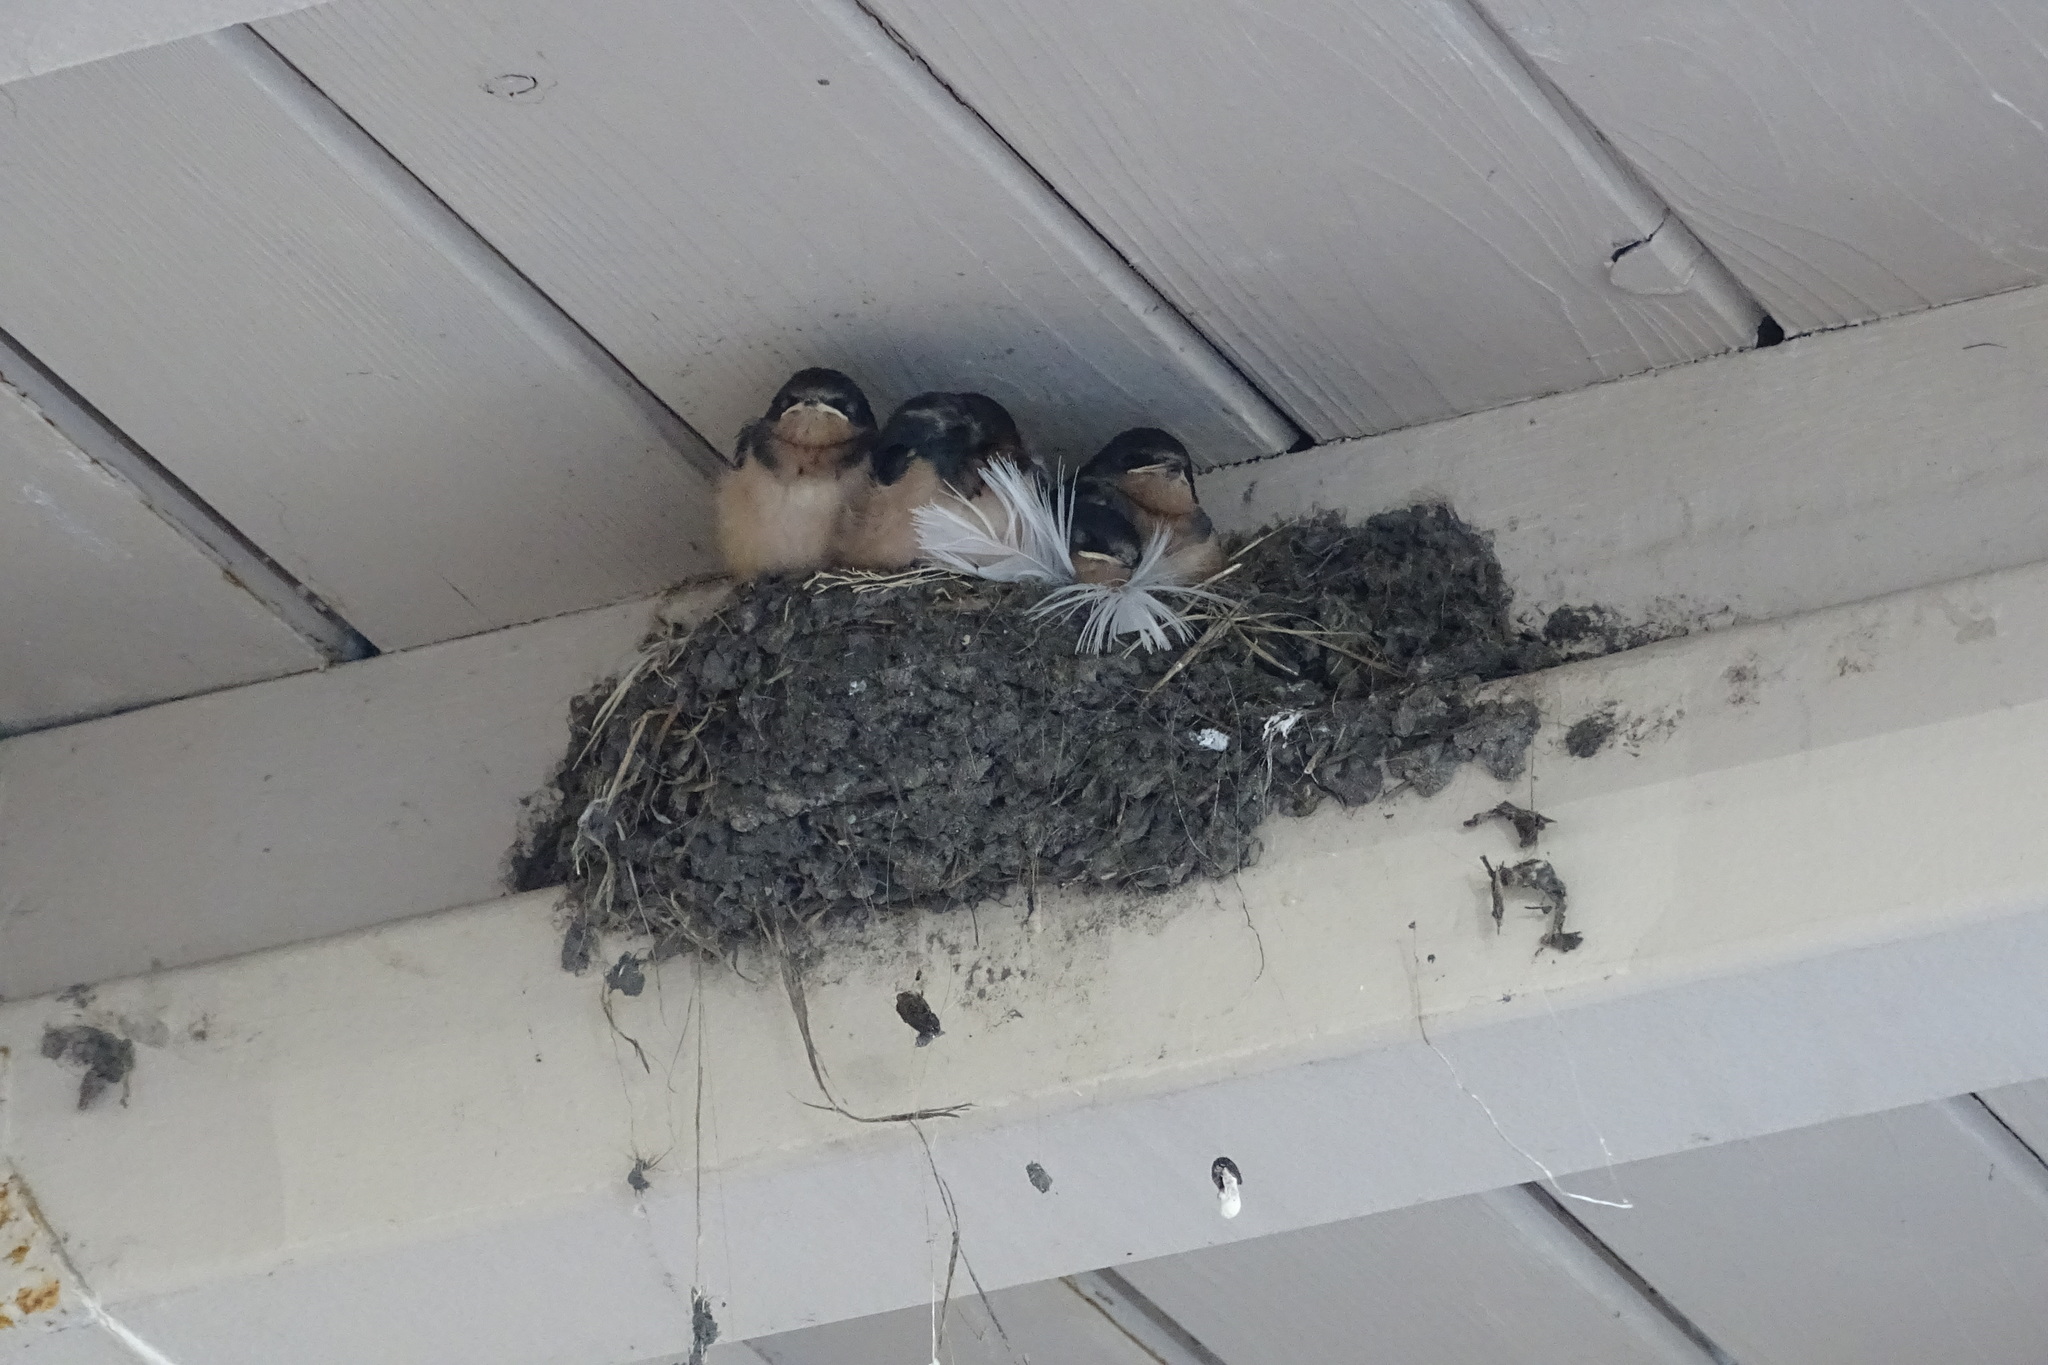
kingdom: Animalia
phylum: Chordata
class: Aves
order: Passeriformes
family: Hirundinidae
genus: Hirundo
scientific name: Hirundo rustica
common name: Barn swallow
